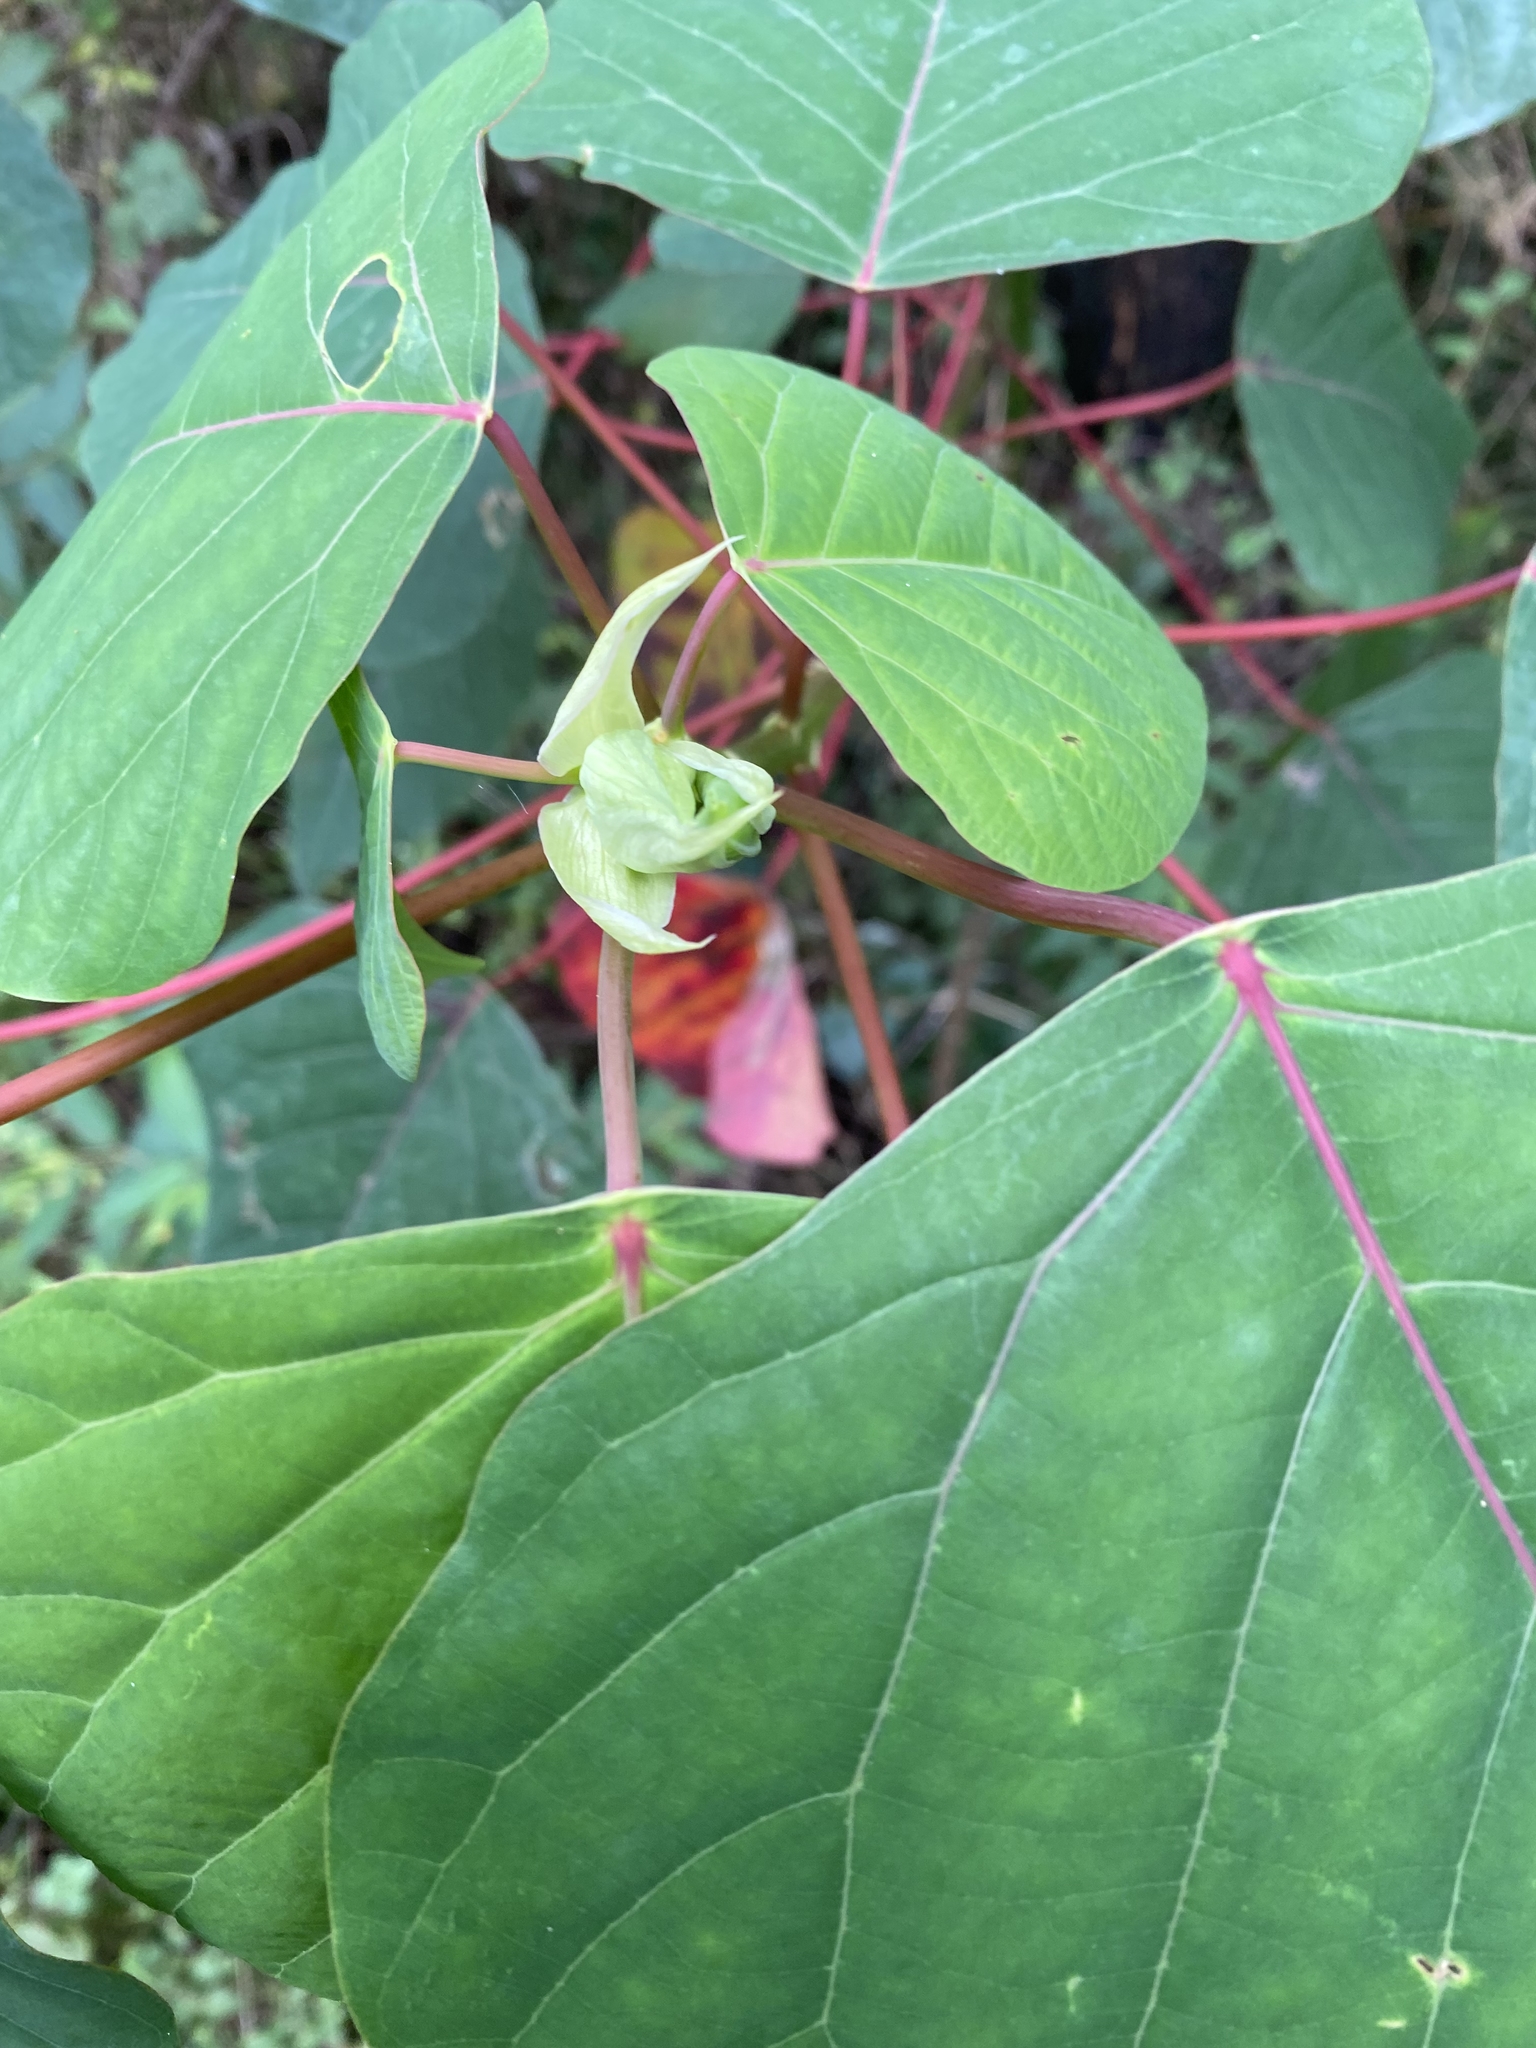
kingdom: Plantae
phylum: Tracheophyta
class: Magnoliopsida
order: Malpighiales
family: Euphorbiaceae
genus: Homalanthus
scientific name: Homalanthus populifolius
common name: Queensland poplar
